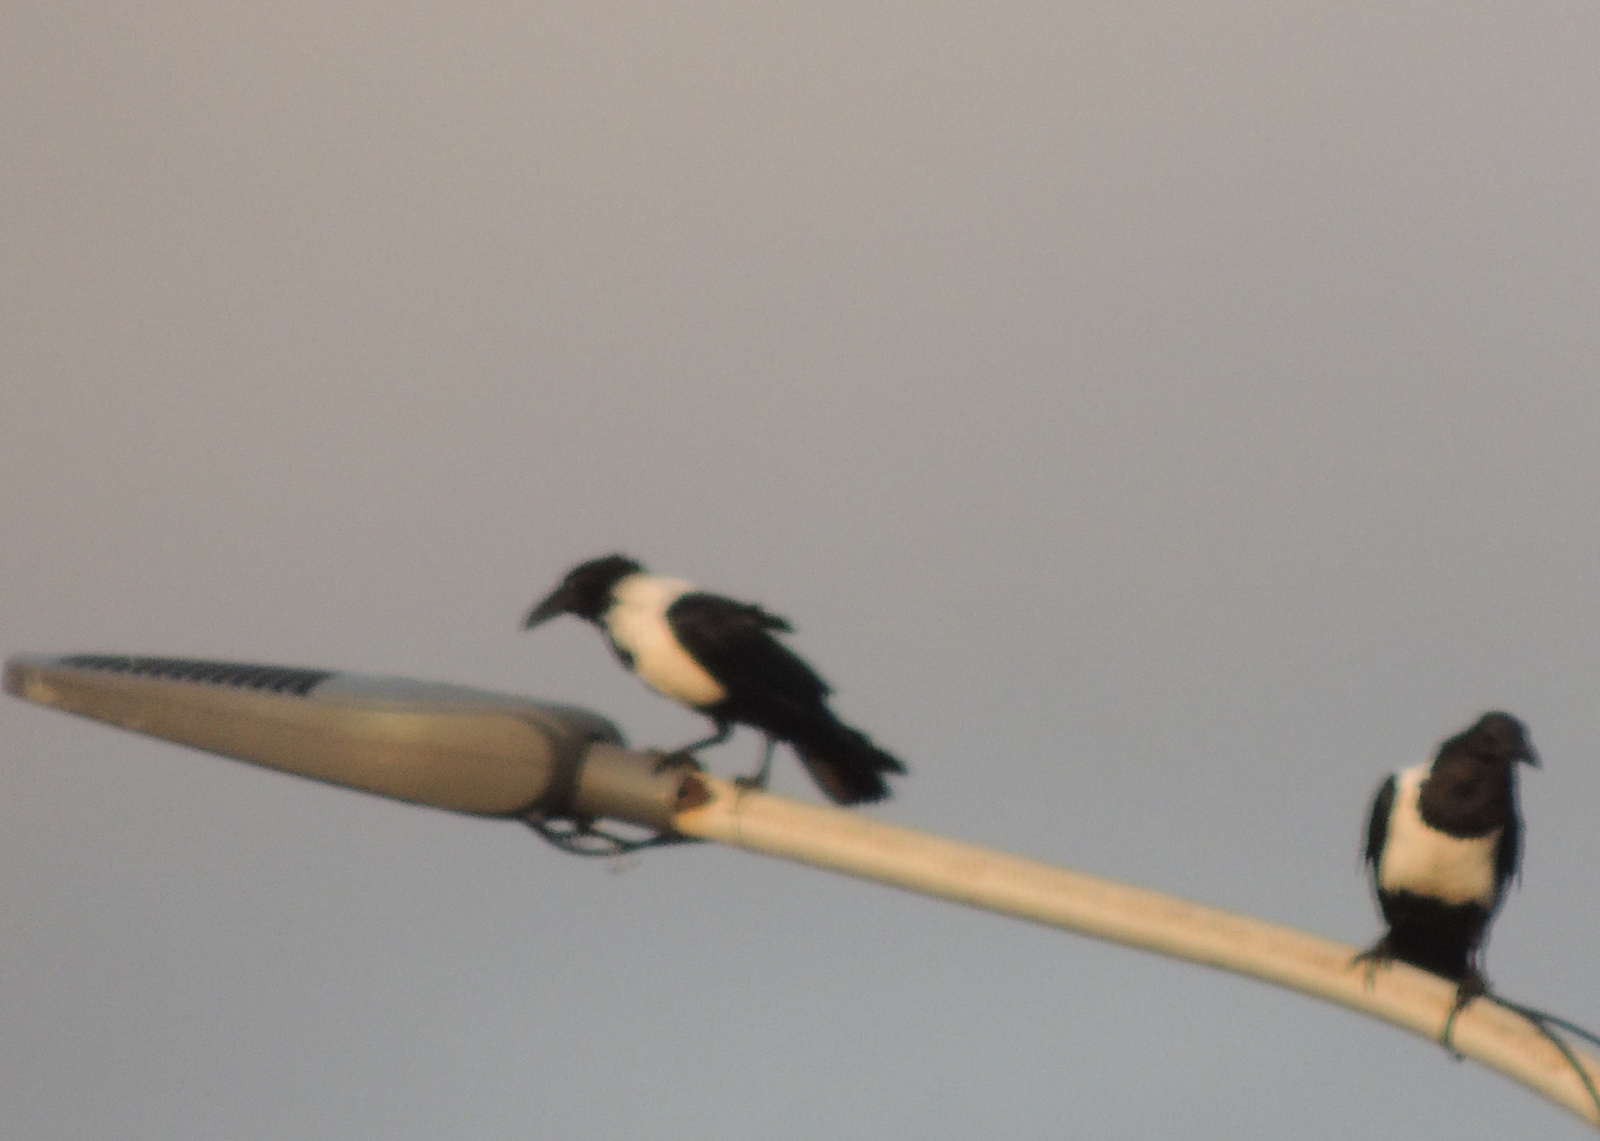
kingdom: Animalia
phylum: Chordata
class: Aves
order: Passeriformes
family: Corvidae
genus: Corvus
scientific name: Corvus albus
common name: Pied crow
